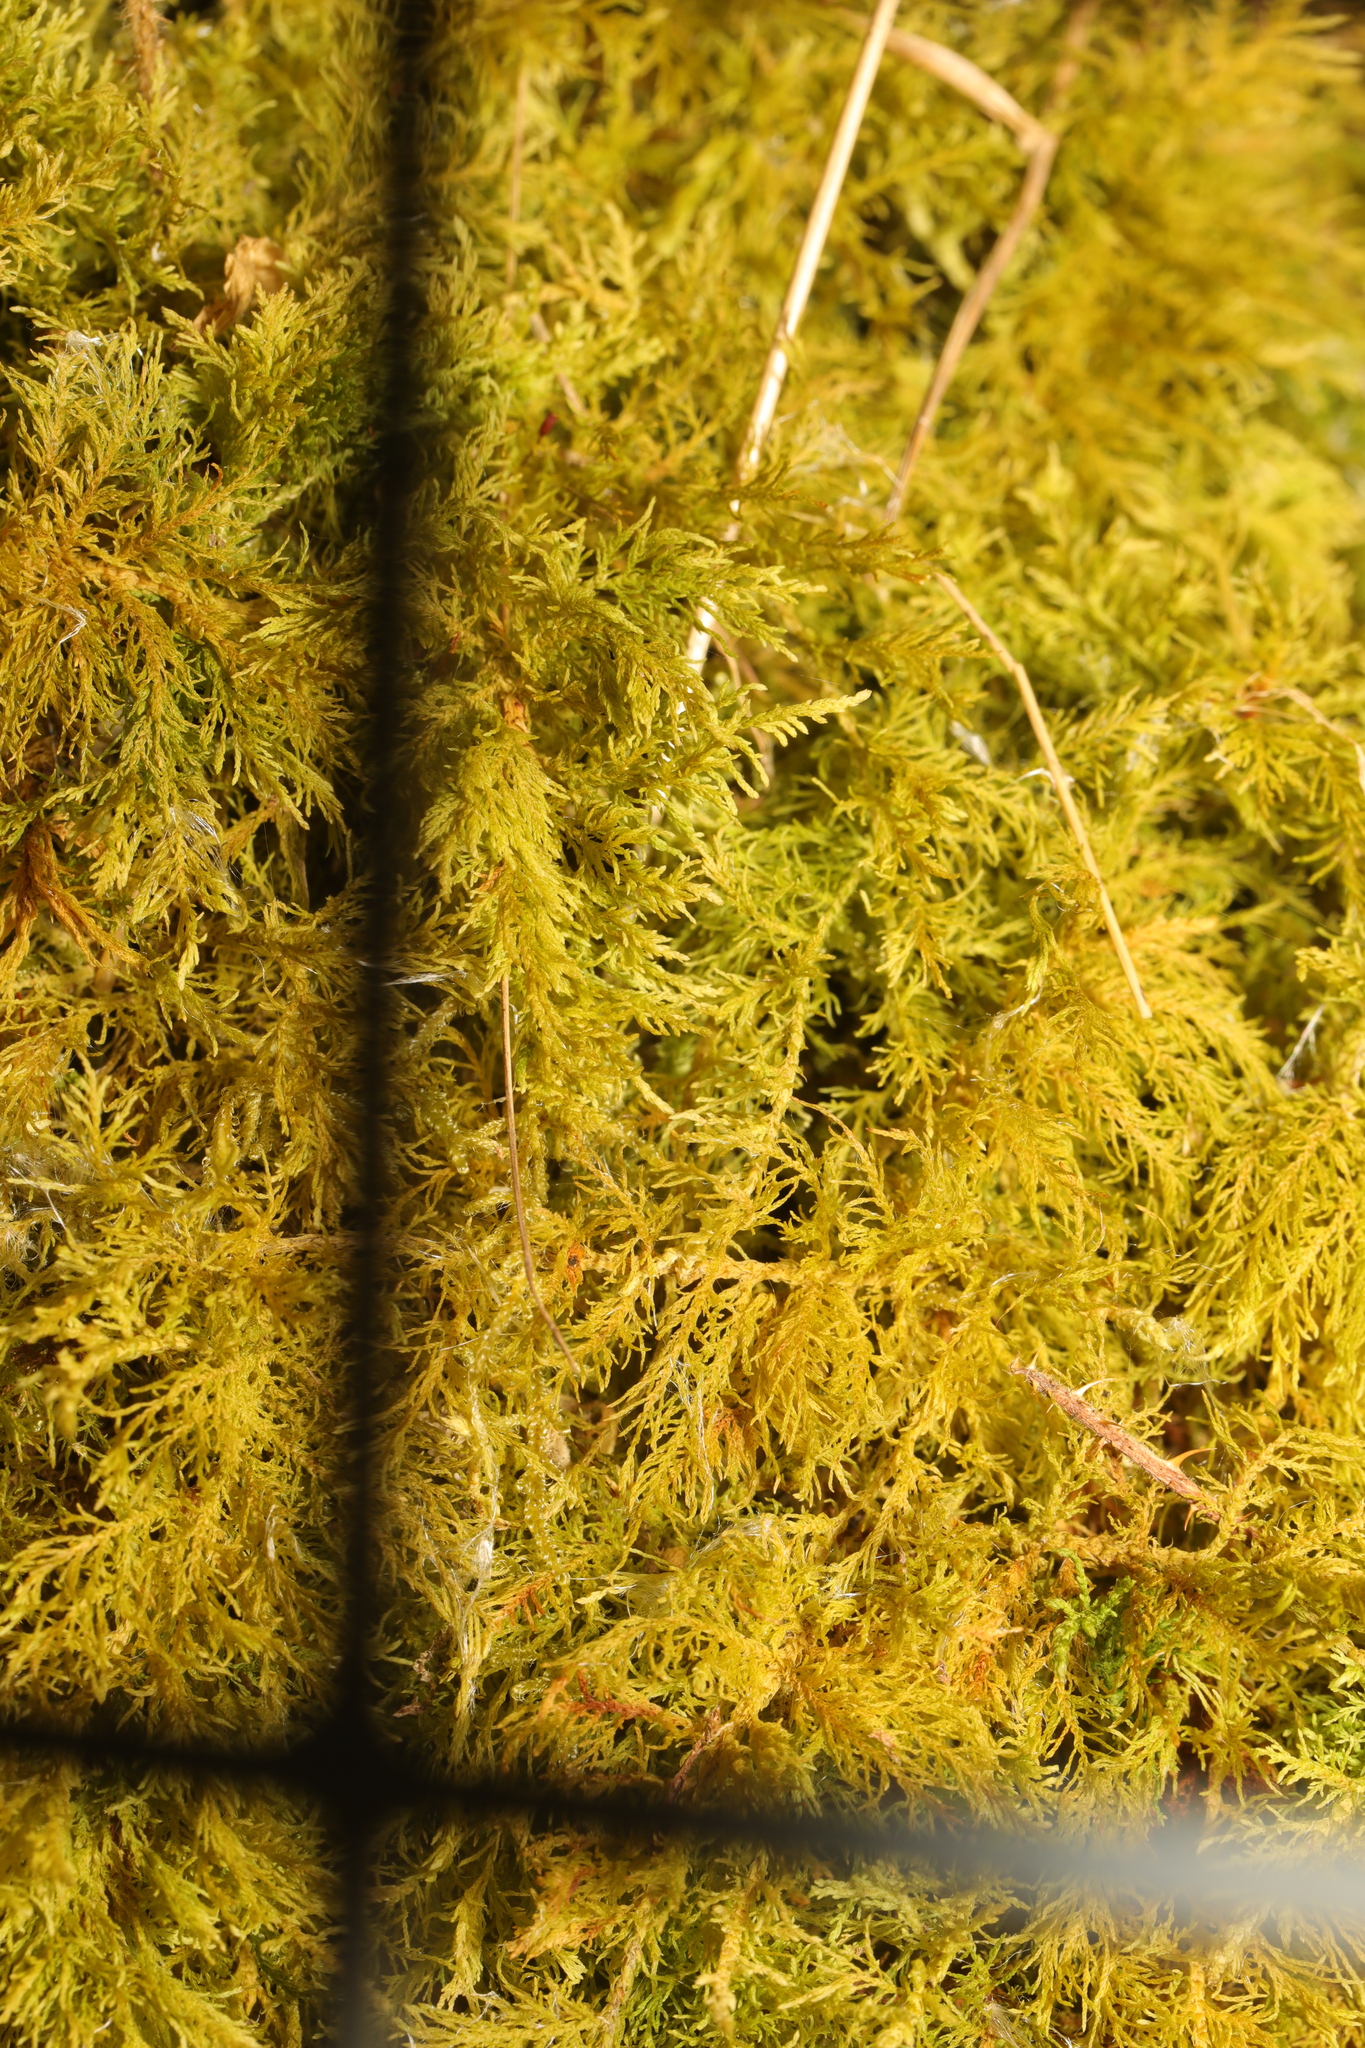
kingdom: Plantae
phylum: Bryophyta
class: Bryopsida
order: Hypnales
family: Thuidiaceae
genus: Thuidium
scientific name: Thuidium tamariscinum
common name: Common tamarisk-moss
